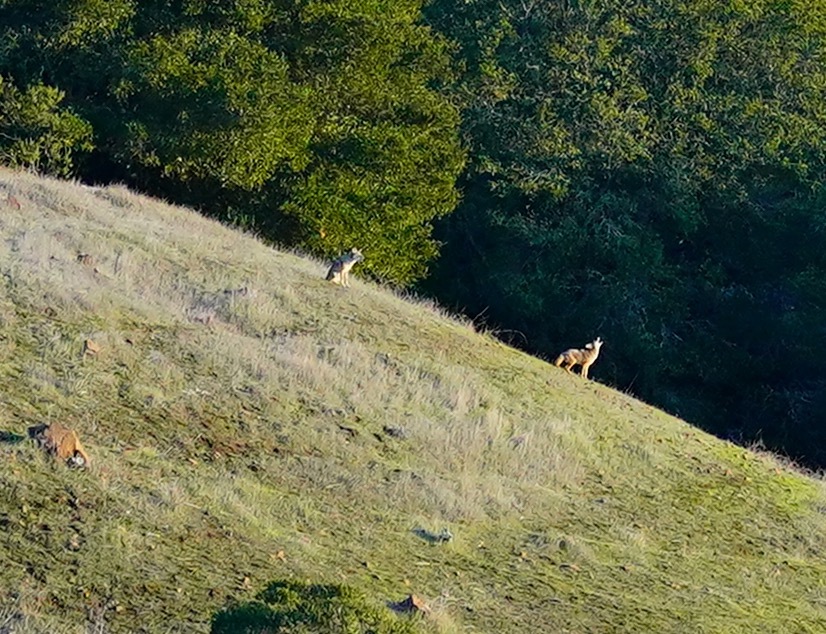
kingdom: Animalia
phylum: Chordata
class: Mammalia
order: Carnivora
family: Canidae
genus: Canis
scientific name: Canis latrans
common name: Coyote
